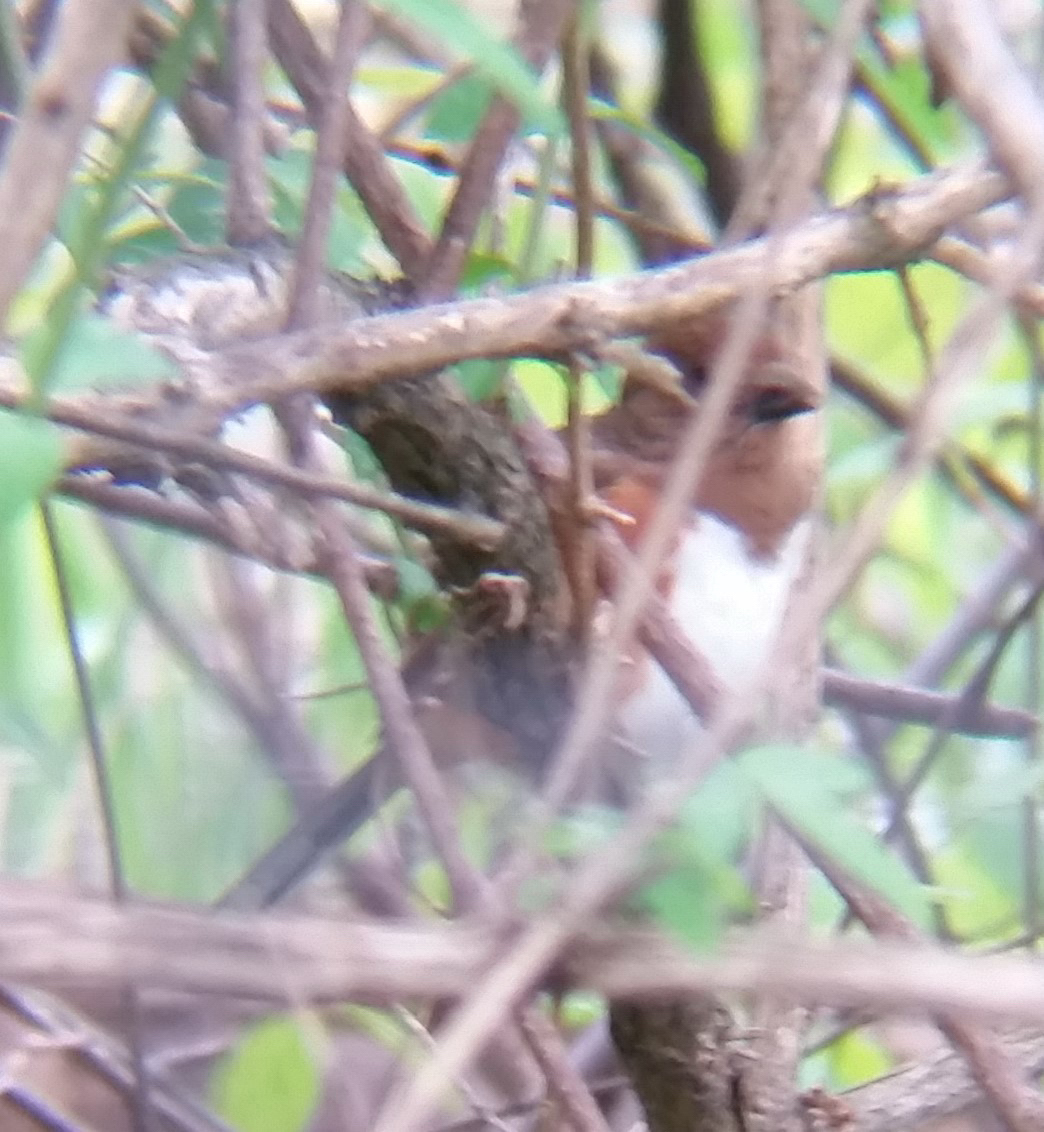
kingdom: Animalia
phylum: Chordata
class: Aves
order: Passeriformes
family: Passerellidae
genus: Pipilo
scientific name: Pipilo erythrophthalmus
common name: Eastern towhee
